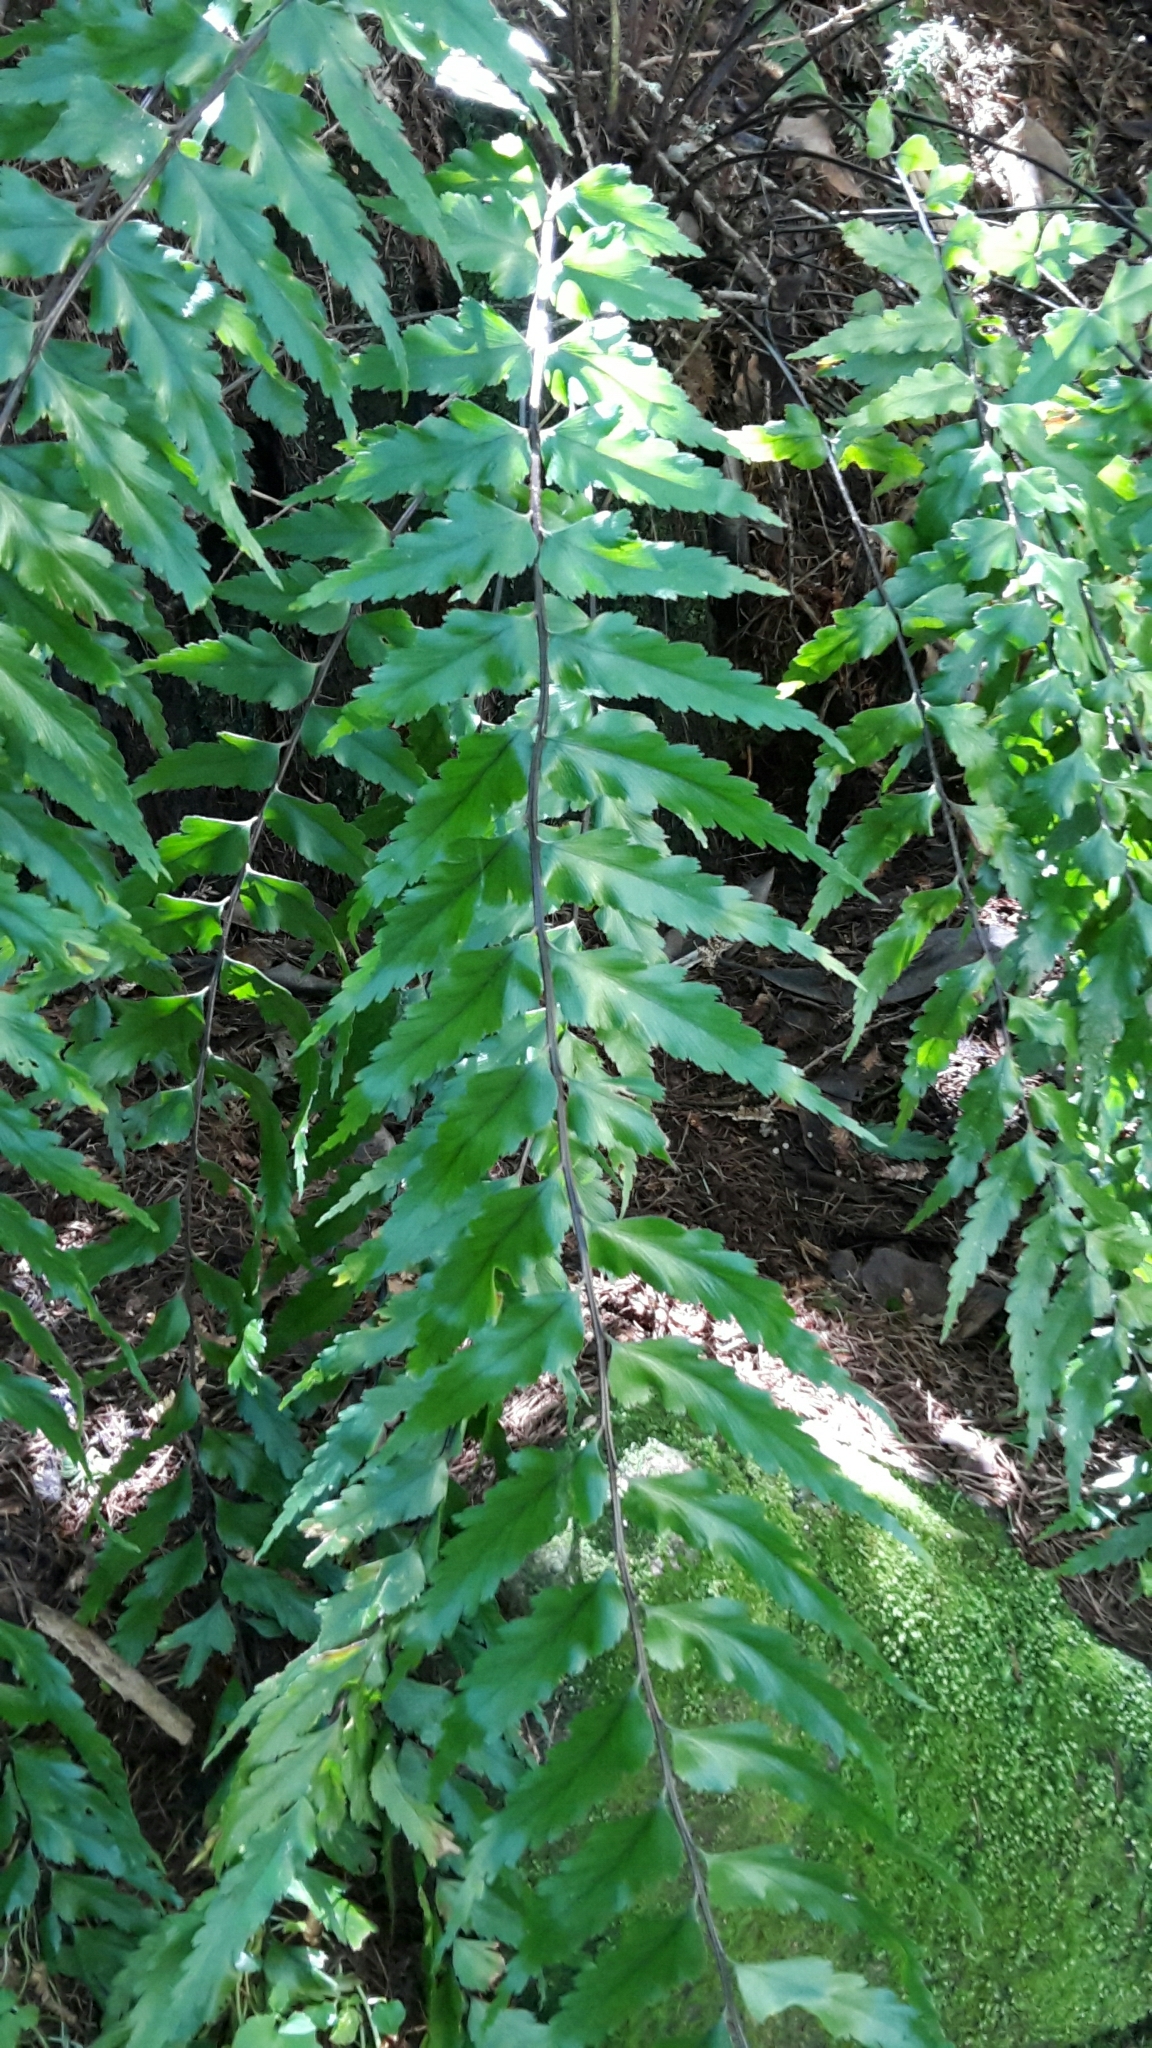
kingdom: Plantae
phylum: Tracheophyta
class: Polypodiopsida
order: Polypodiales
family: Aspleniaceae
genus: Asplenium
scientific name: Asplenium polyodon
